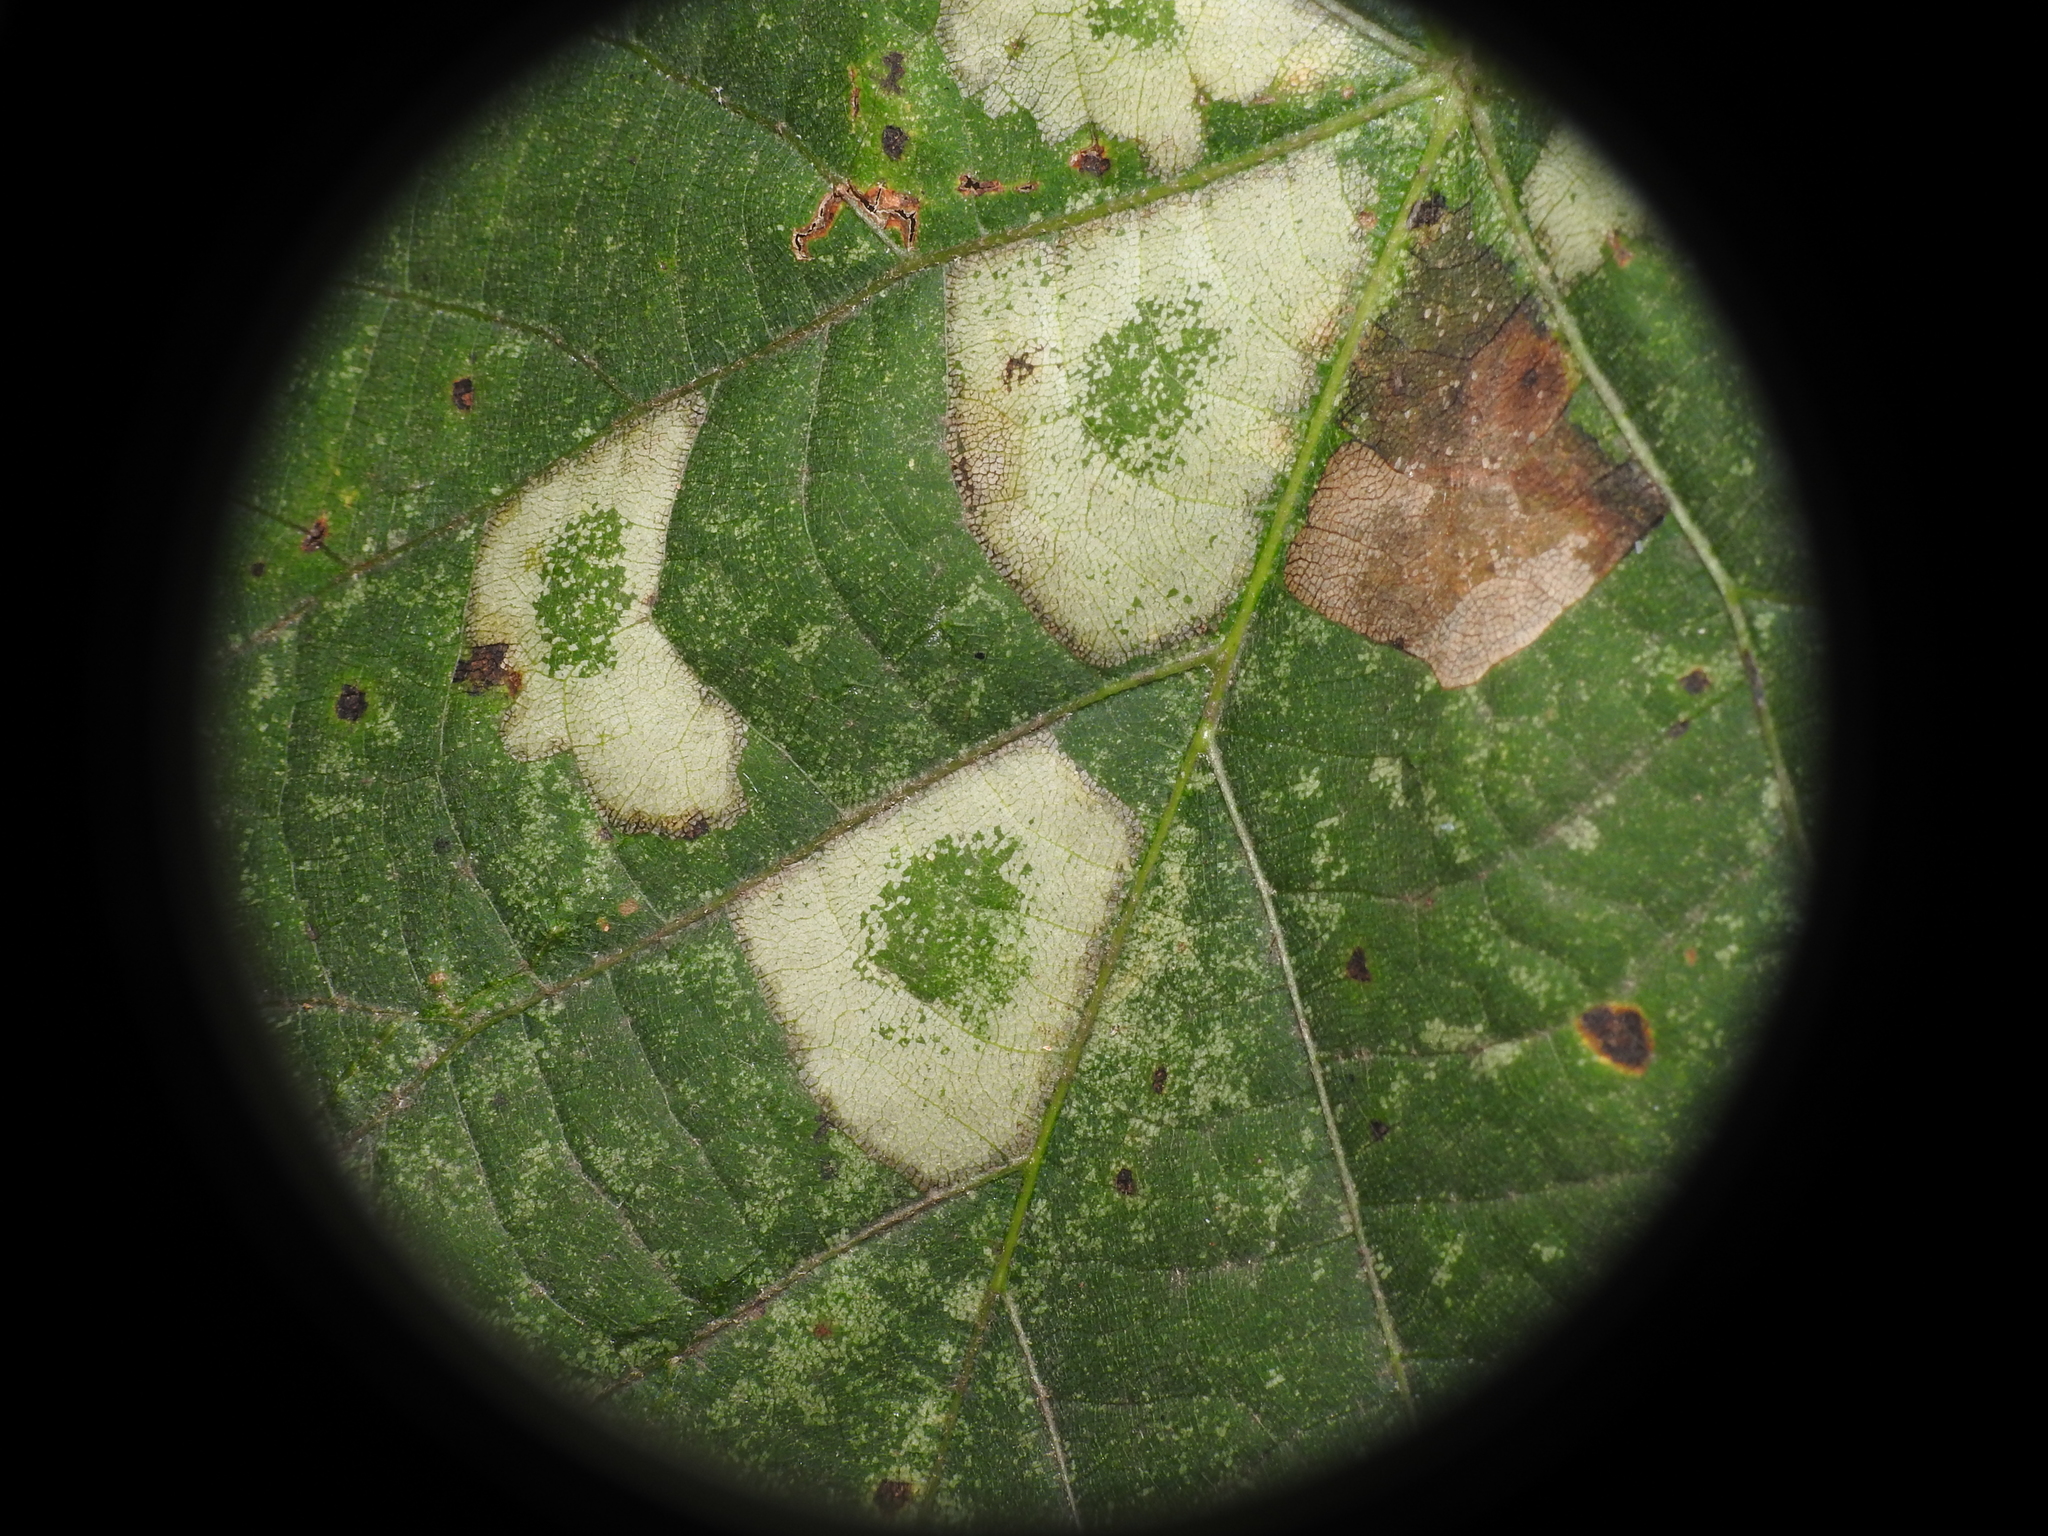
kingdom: Animalia
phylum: Arthropoda
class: Insecta
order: Lepidoptera
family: Gracillariidae
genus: Phyllonorycter
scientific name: Phyllonorycter lucetiella
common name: Basswood miner moth
